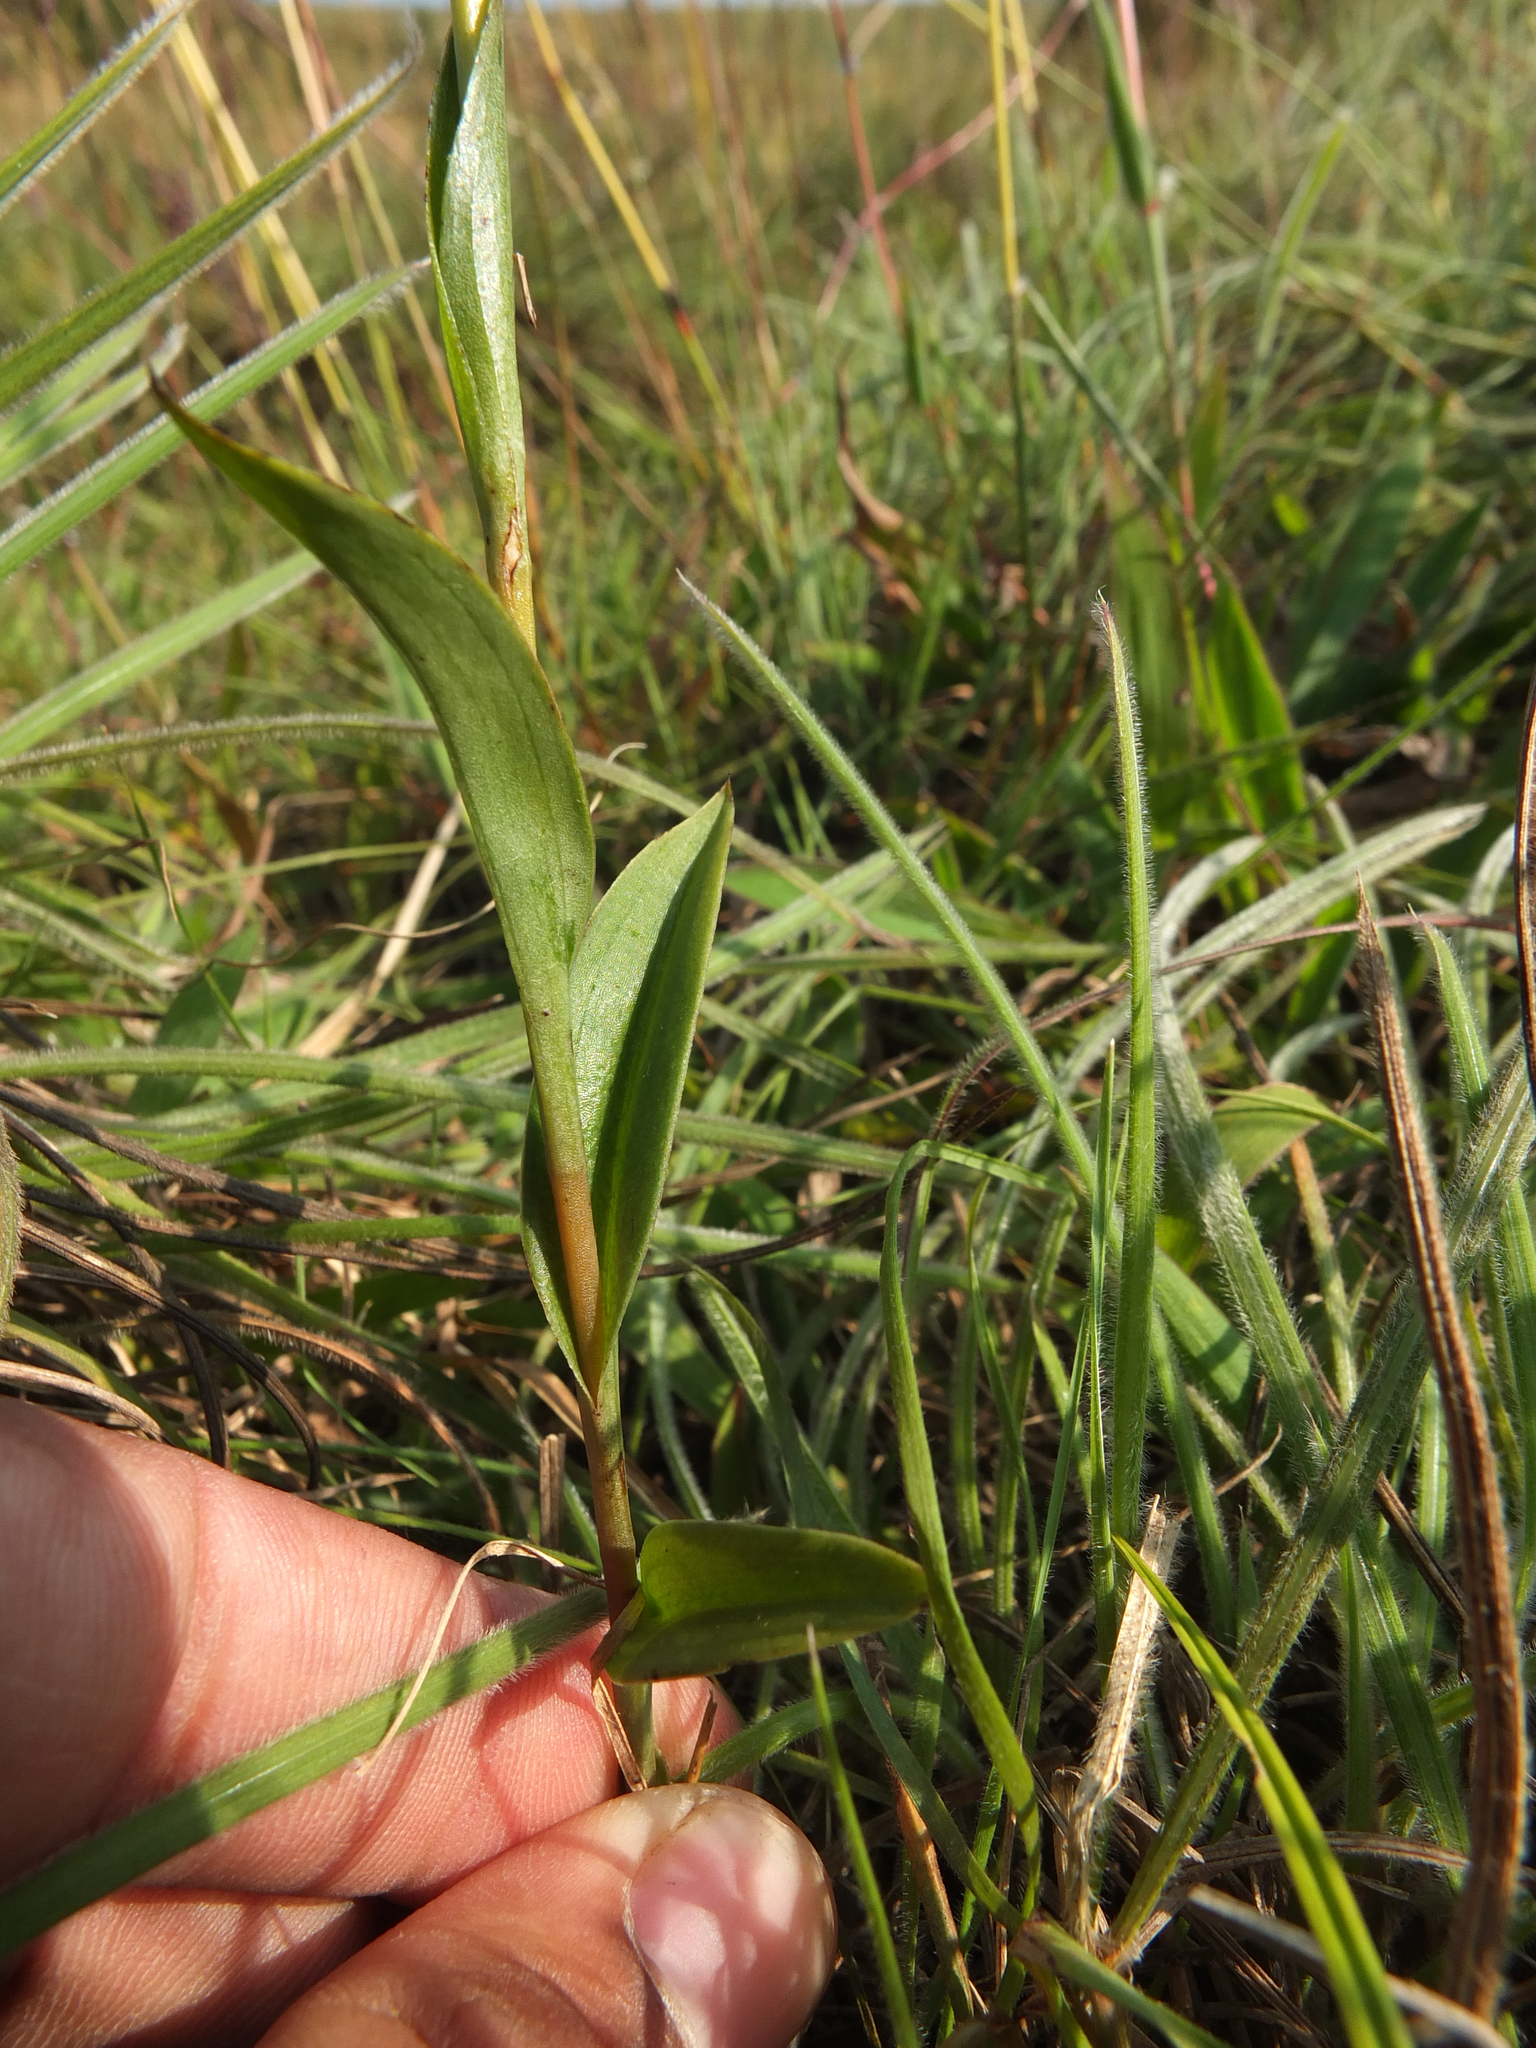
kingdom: Plantae
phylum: Tracheophyta
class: Liliopsida
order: Asparagales
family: Orchidaceae
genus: Habenaria
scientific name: Habenaria barnesii
